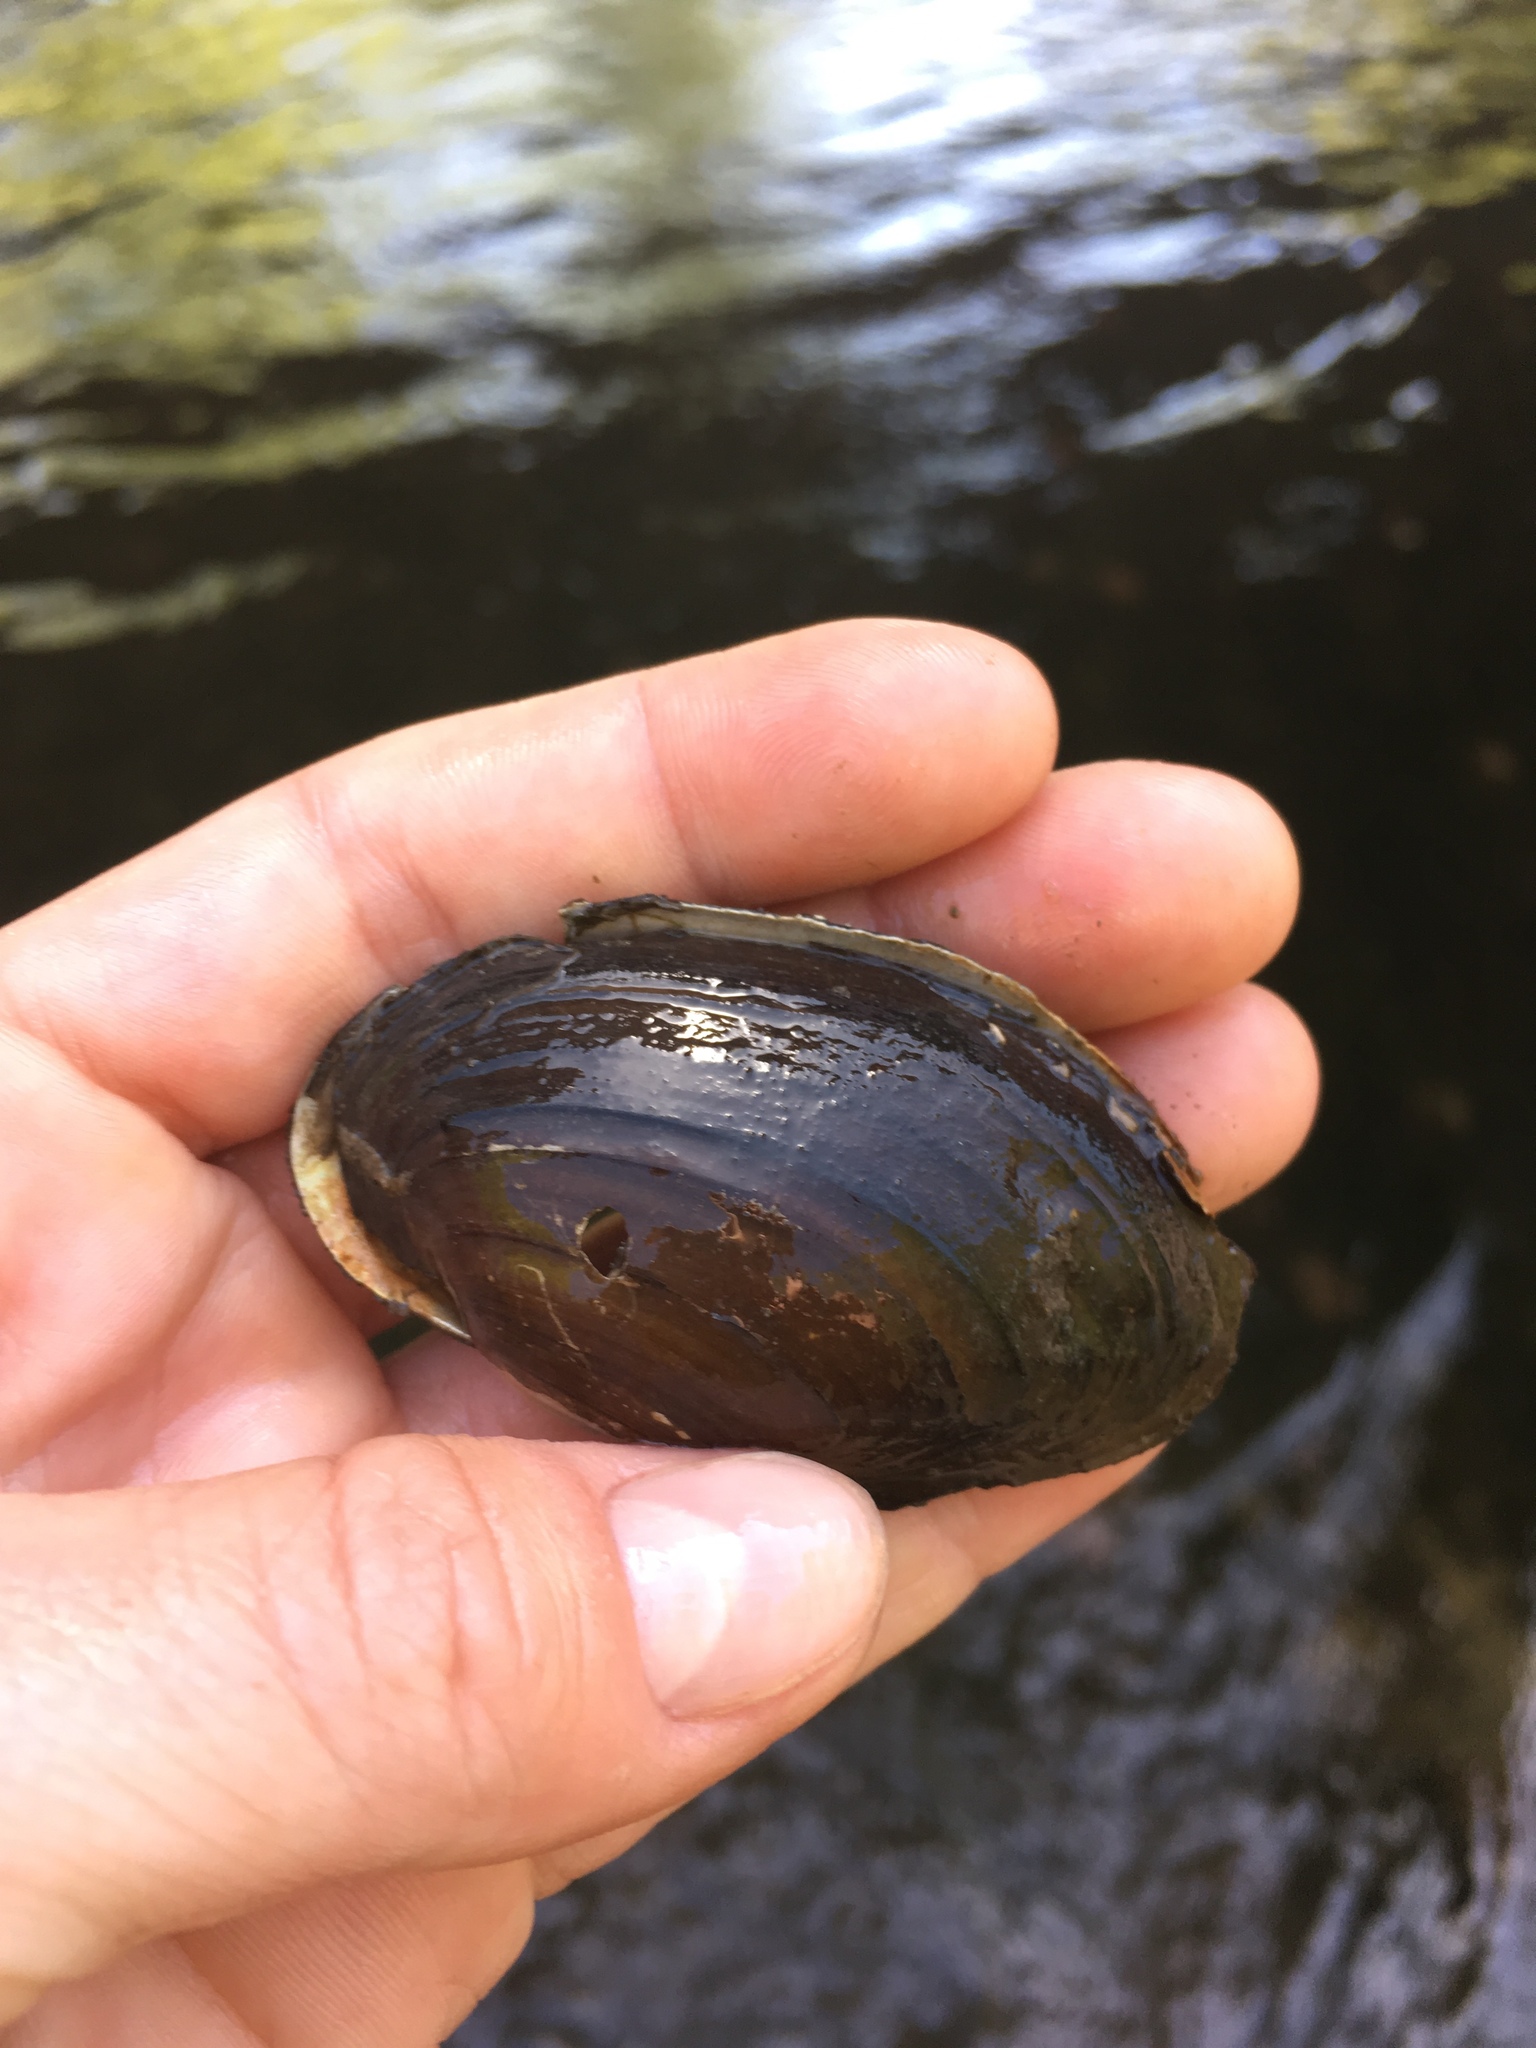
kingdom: Animalia
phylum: Mollusca
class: Bivalvia
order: Unionida
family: Unionidae
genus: Pyganodon
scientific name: Pyganodon grandis
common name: Giant floater
